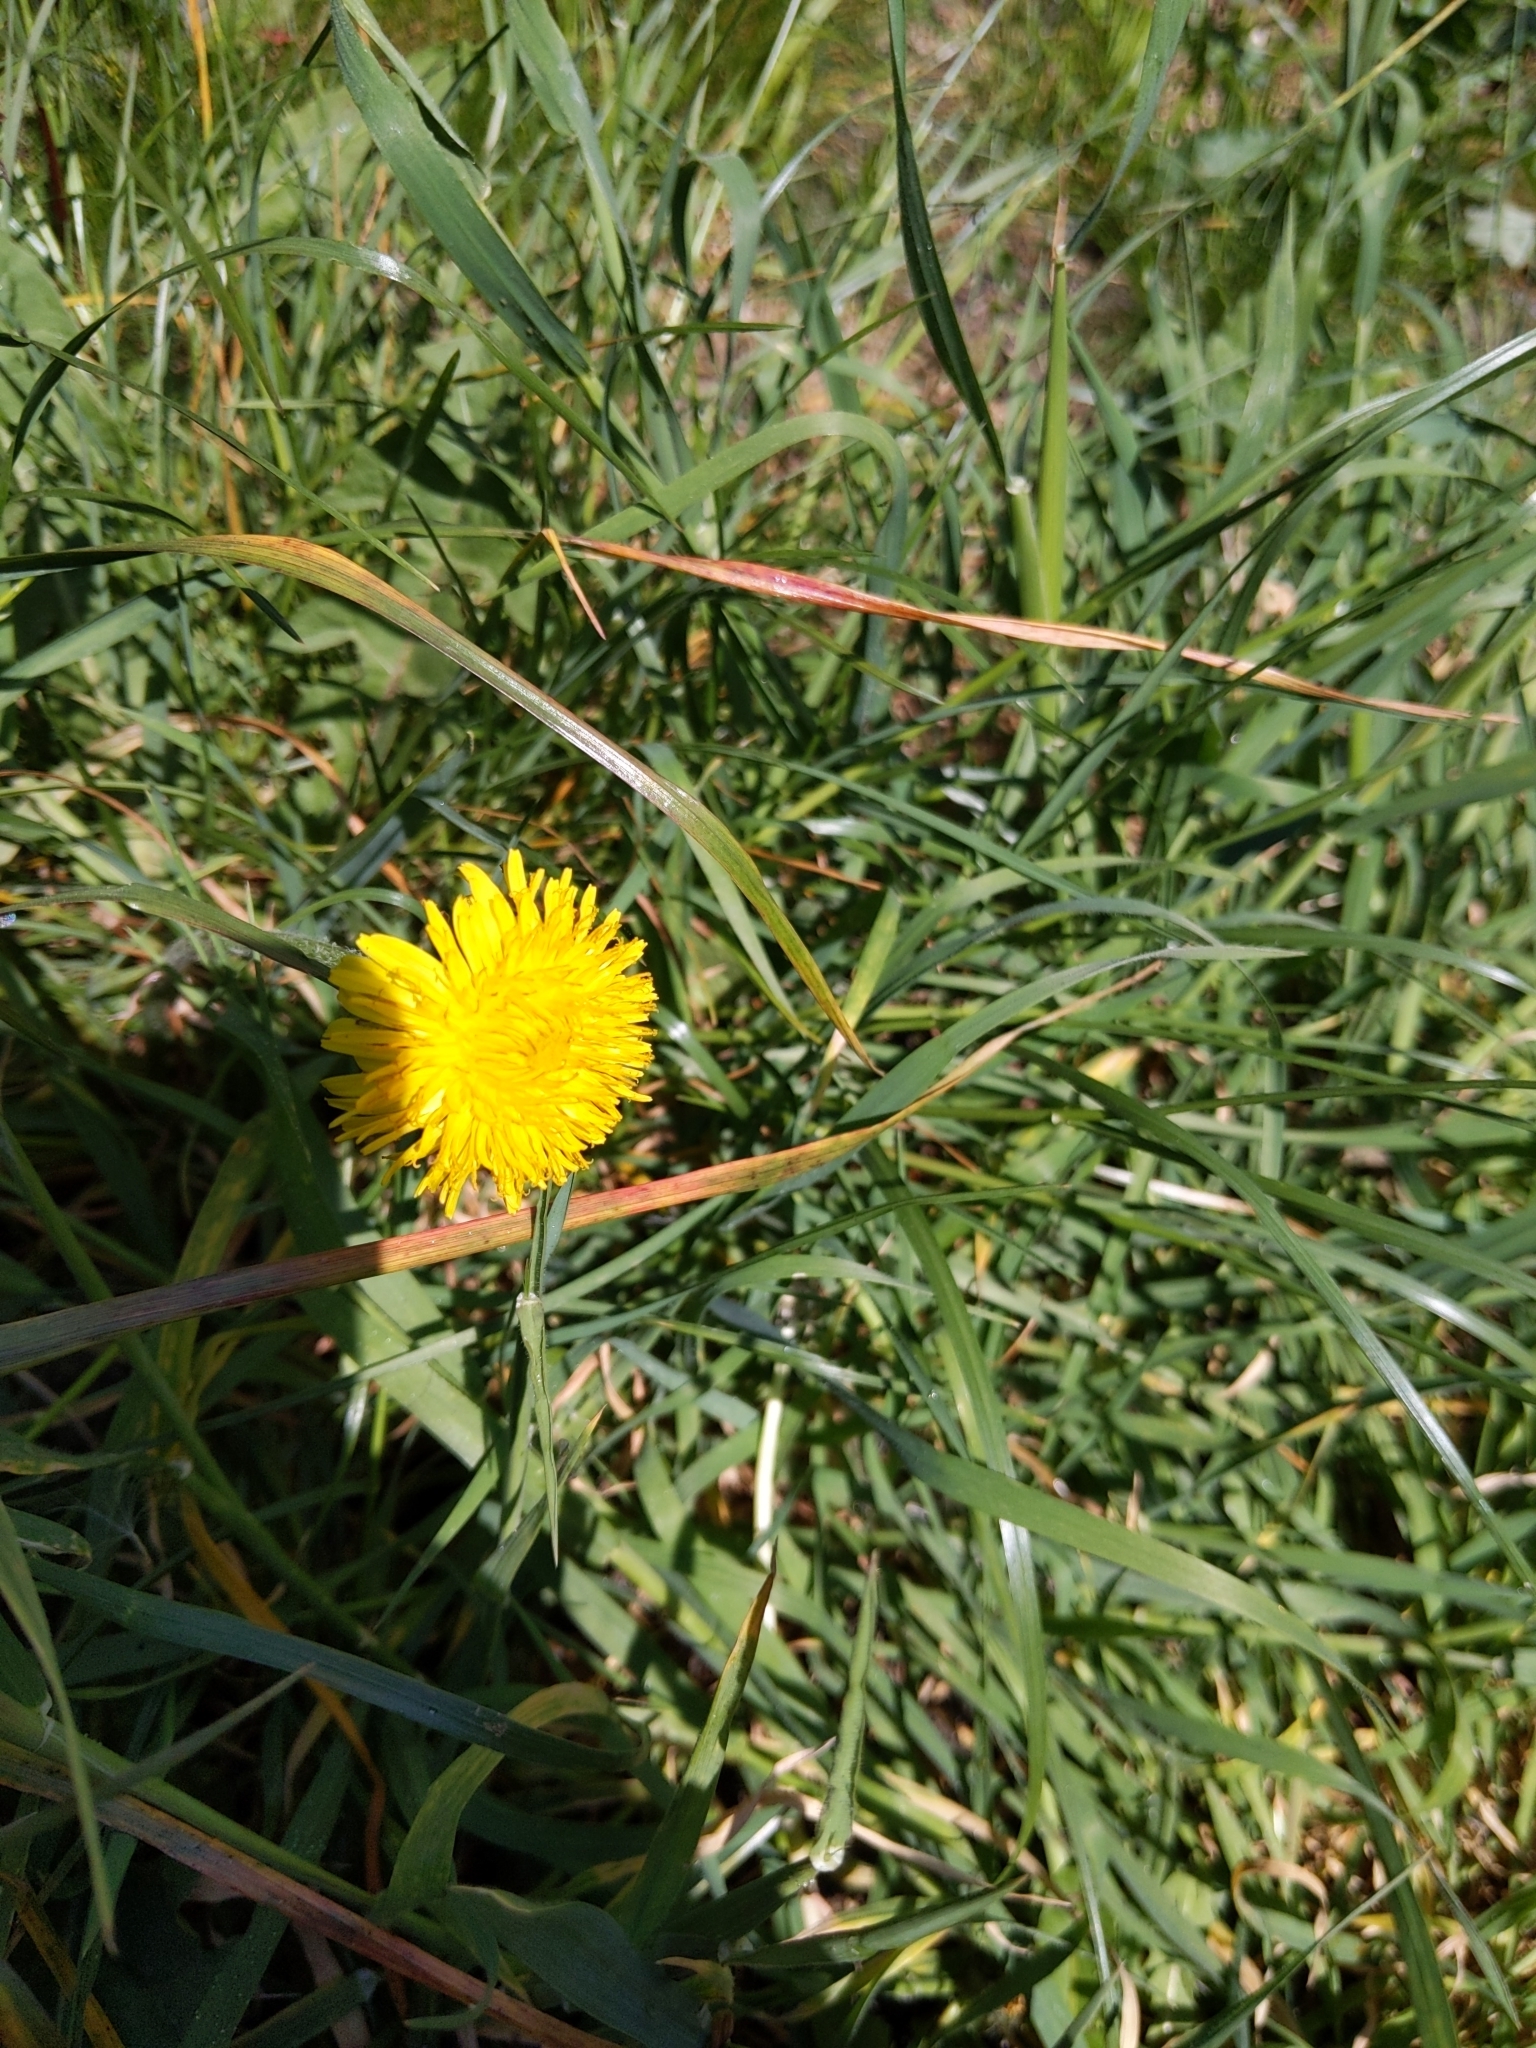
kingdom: Plantae
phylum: Tracheophyta
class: Magnoliopsida
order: Asterales
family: Asteraceae
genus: Taraxacum
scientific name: Taraxacum officinale
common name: Common dandelion
